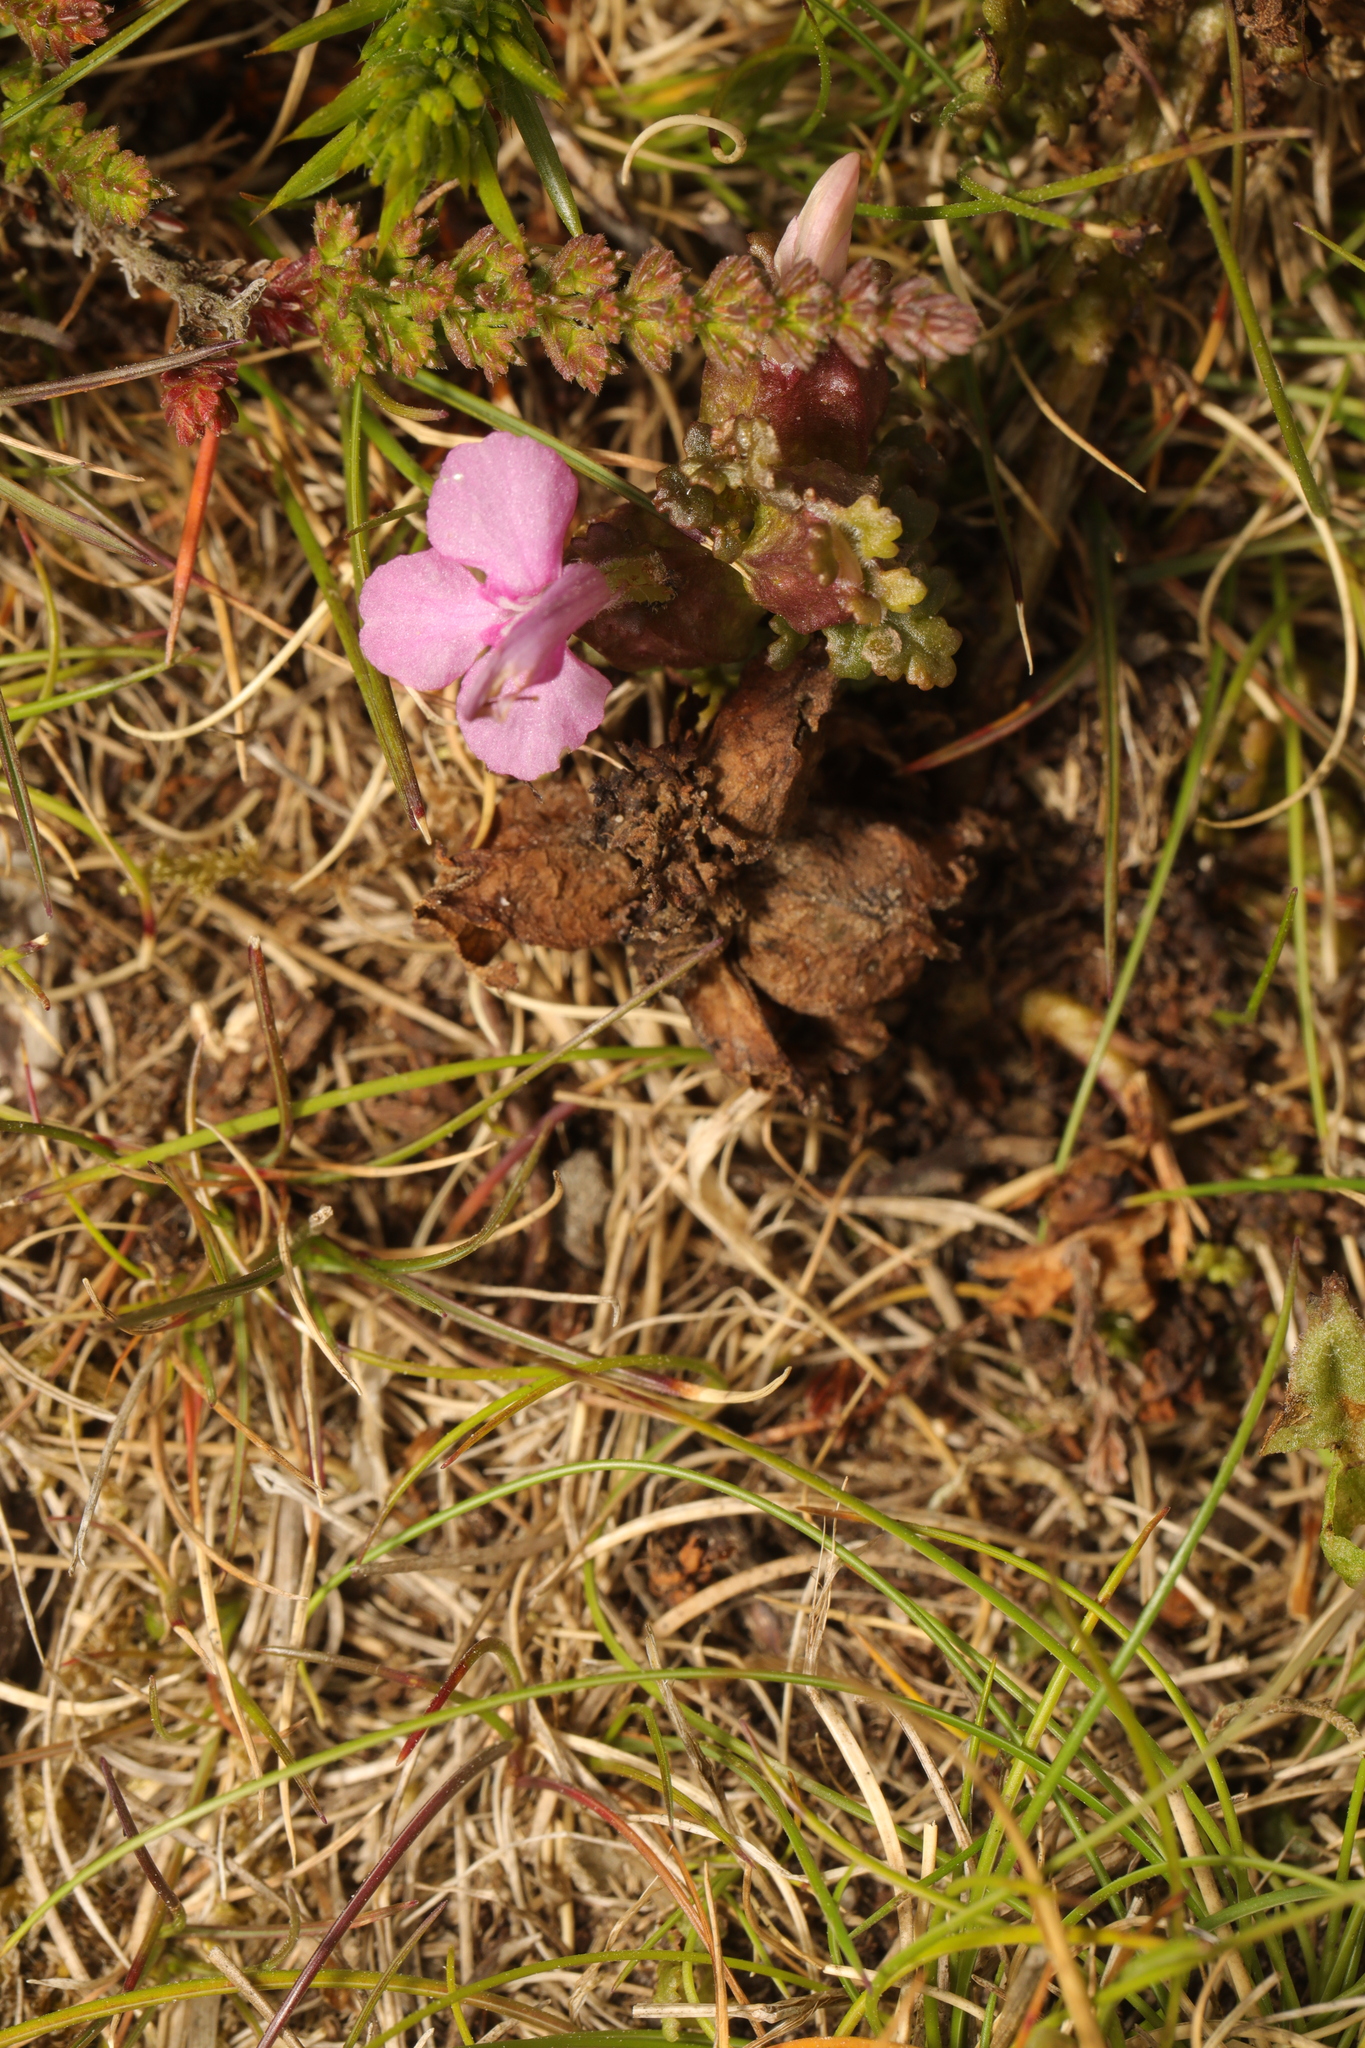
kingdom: Plantae
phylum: Tracheophyta
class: Magnoliopsida
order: Lamiales
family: Orobanchaceae
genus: Pedicularis
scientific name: Pedicularis sylvatica
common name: Lousewort
